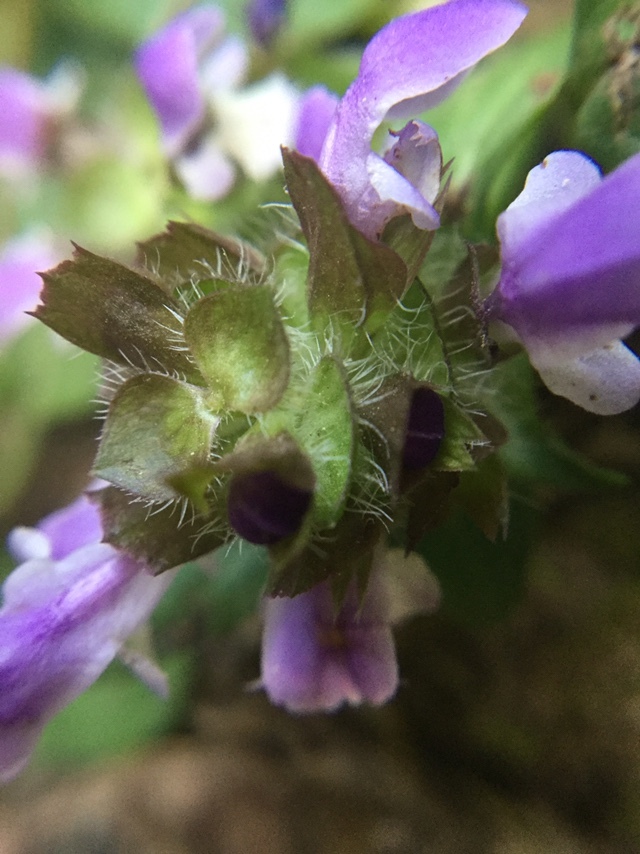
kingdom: Plantae
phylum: Tracheophyta
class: Magnoliopsida
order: Lamiales
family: Lamiaceae
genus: Prunella
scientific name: Prunella vulgaris
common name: Heal-all
